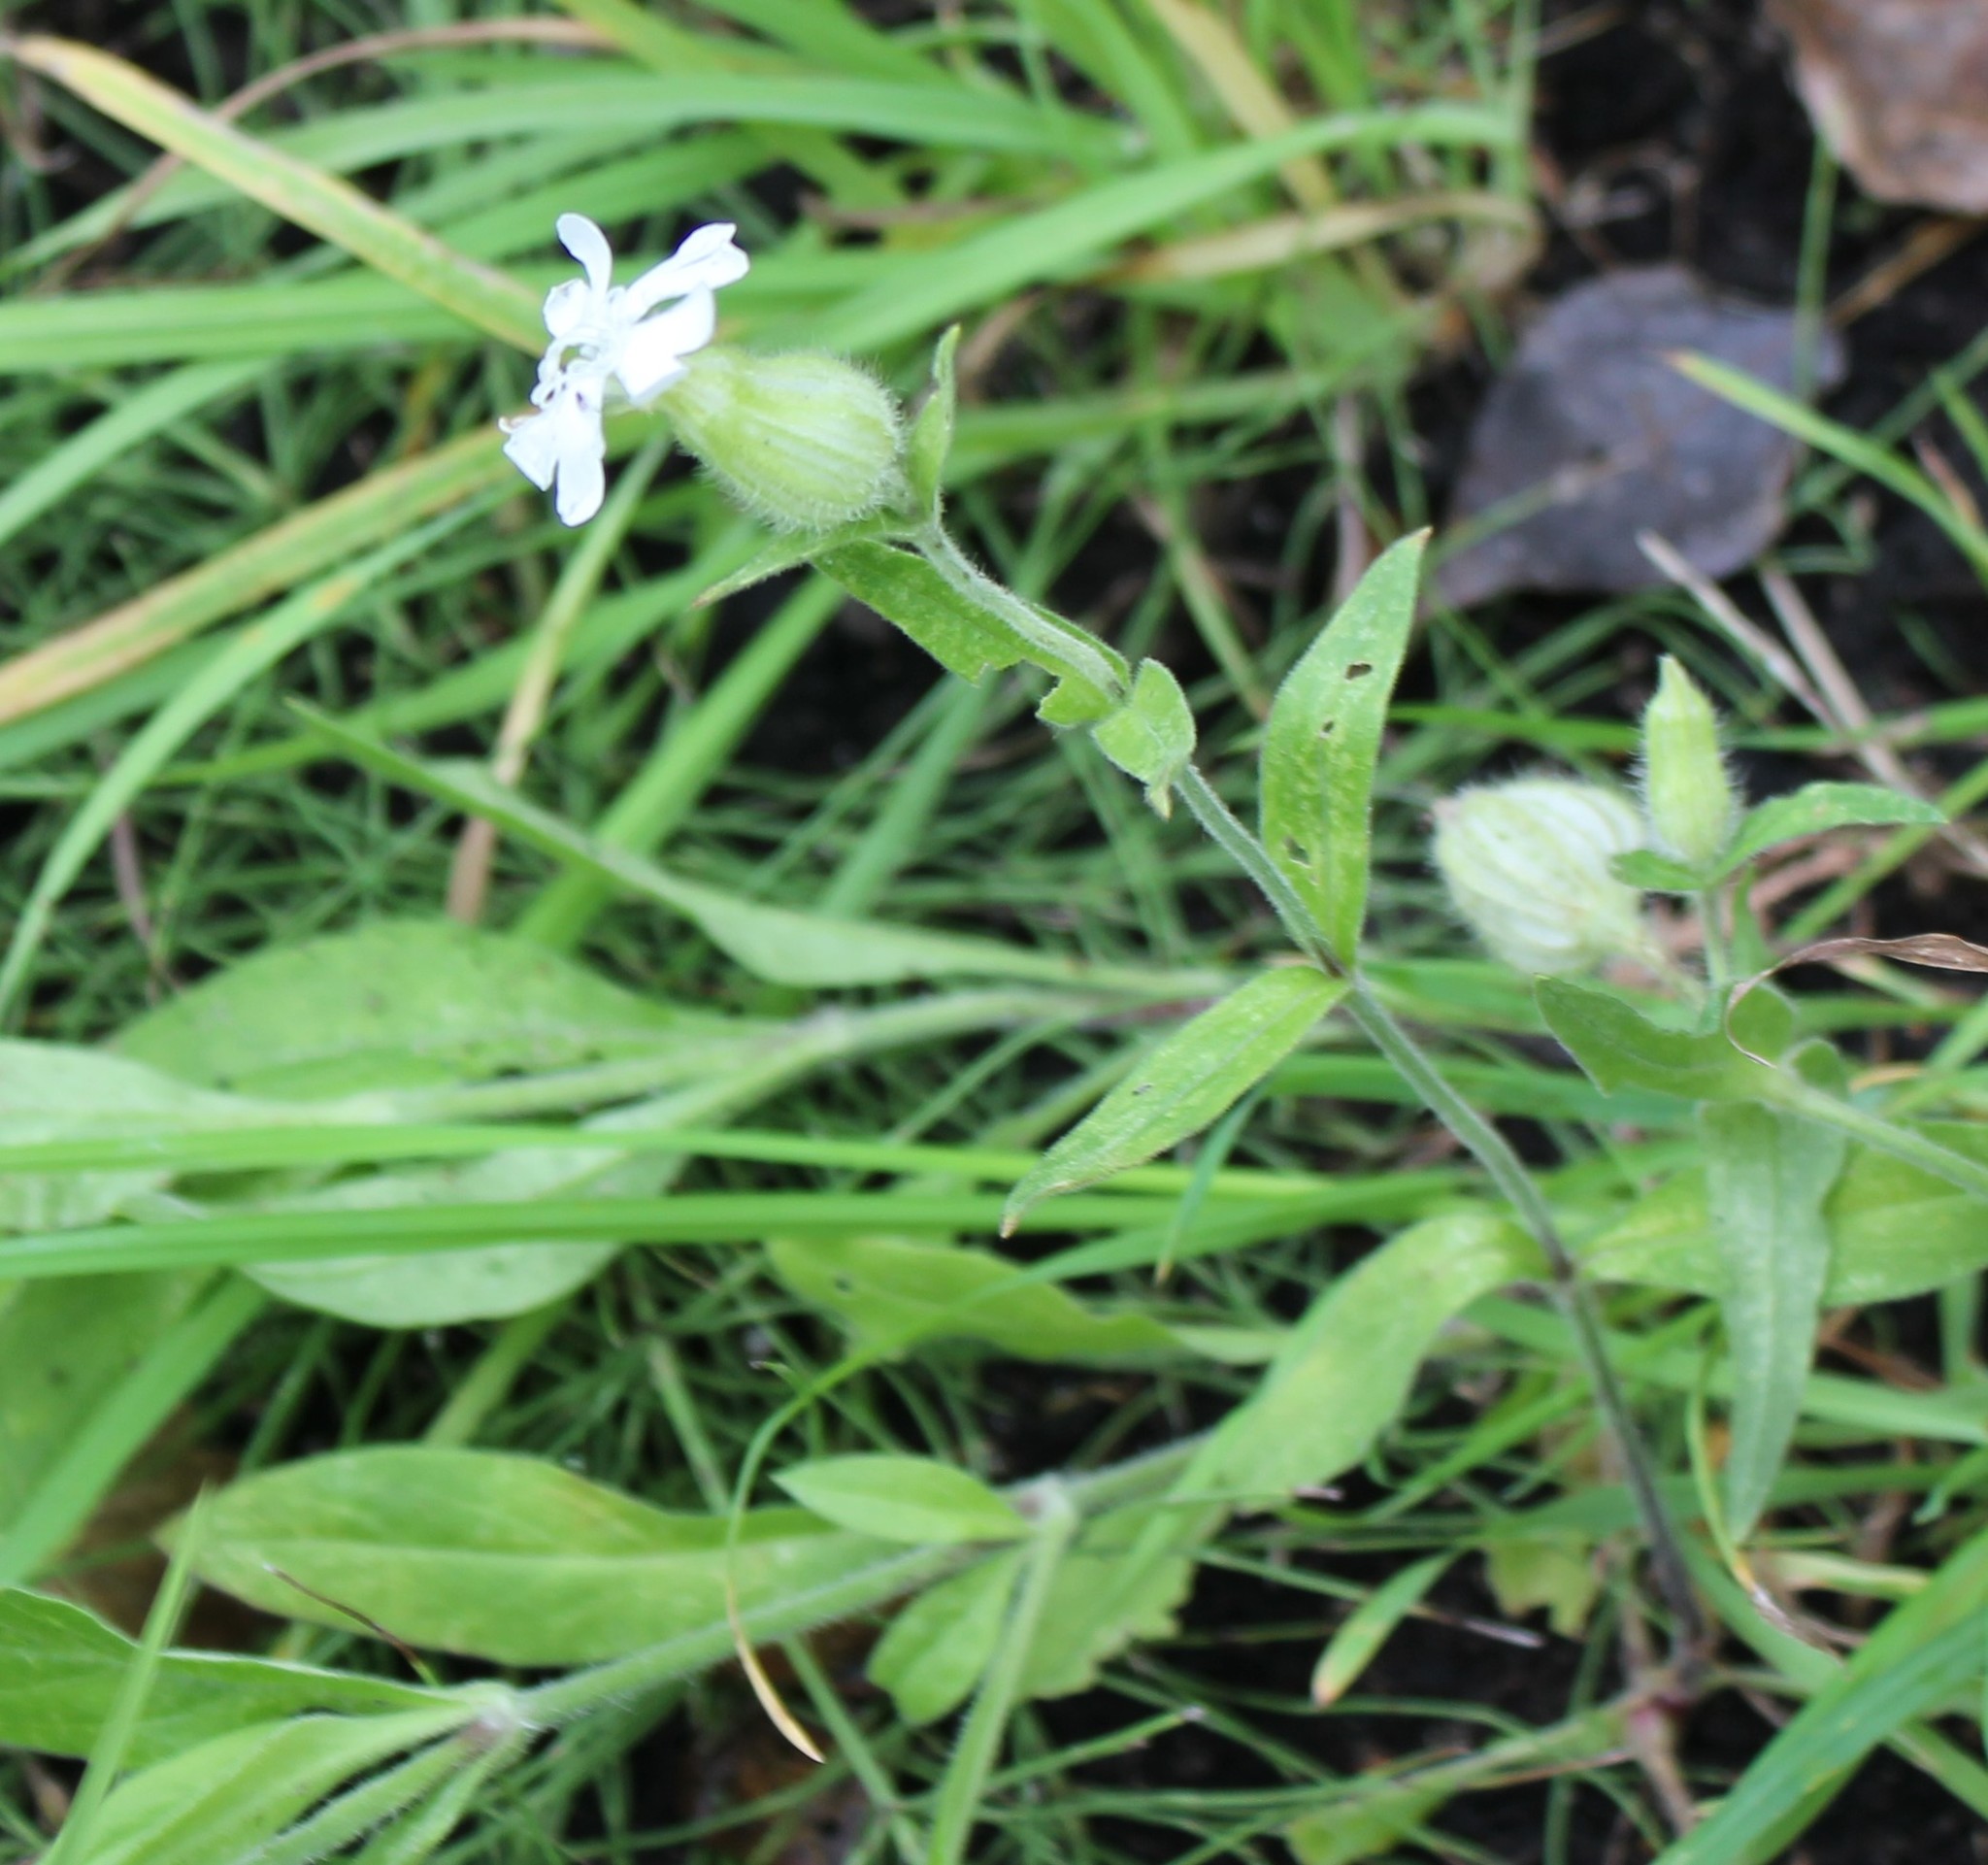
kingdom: Plantae
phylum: Tracheophyta
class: Magnoliopsida
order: Caryophyllales
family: Caryophyllaceae
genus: Silene
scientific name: Silene latifolia
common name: White campion
